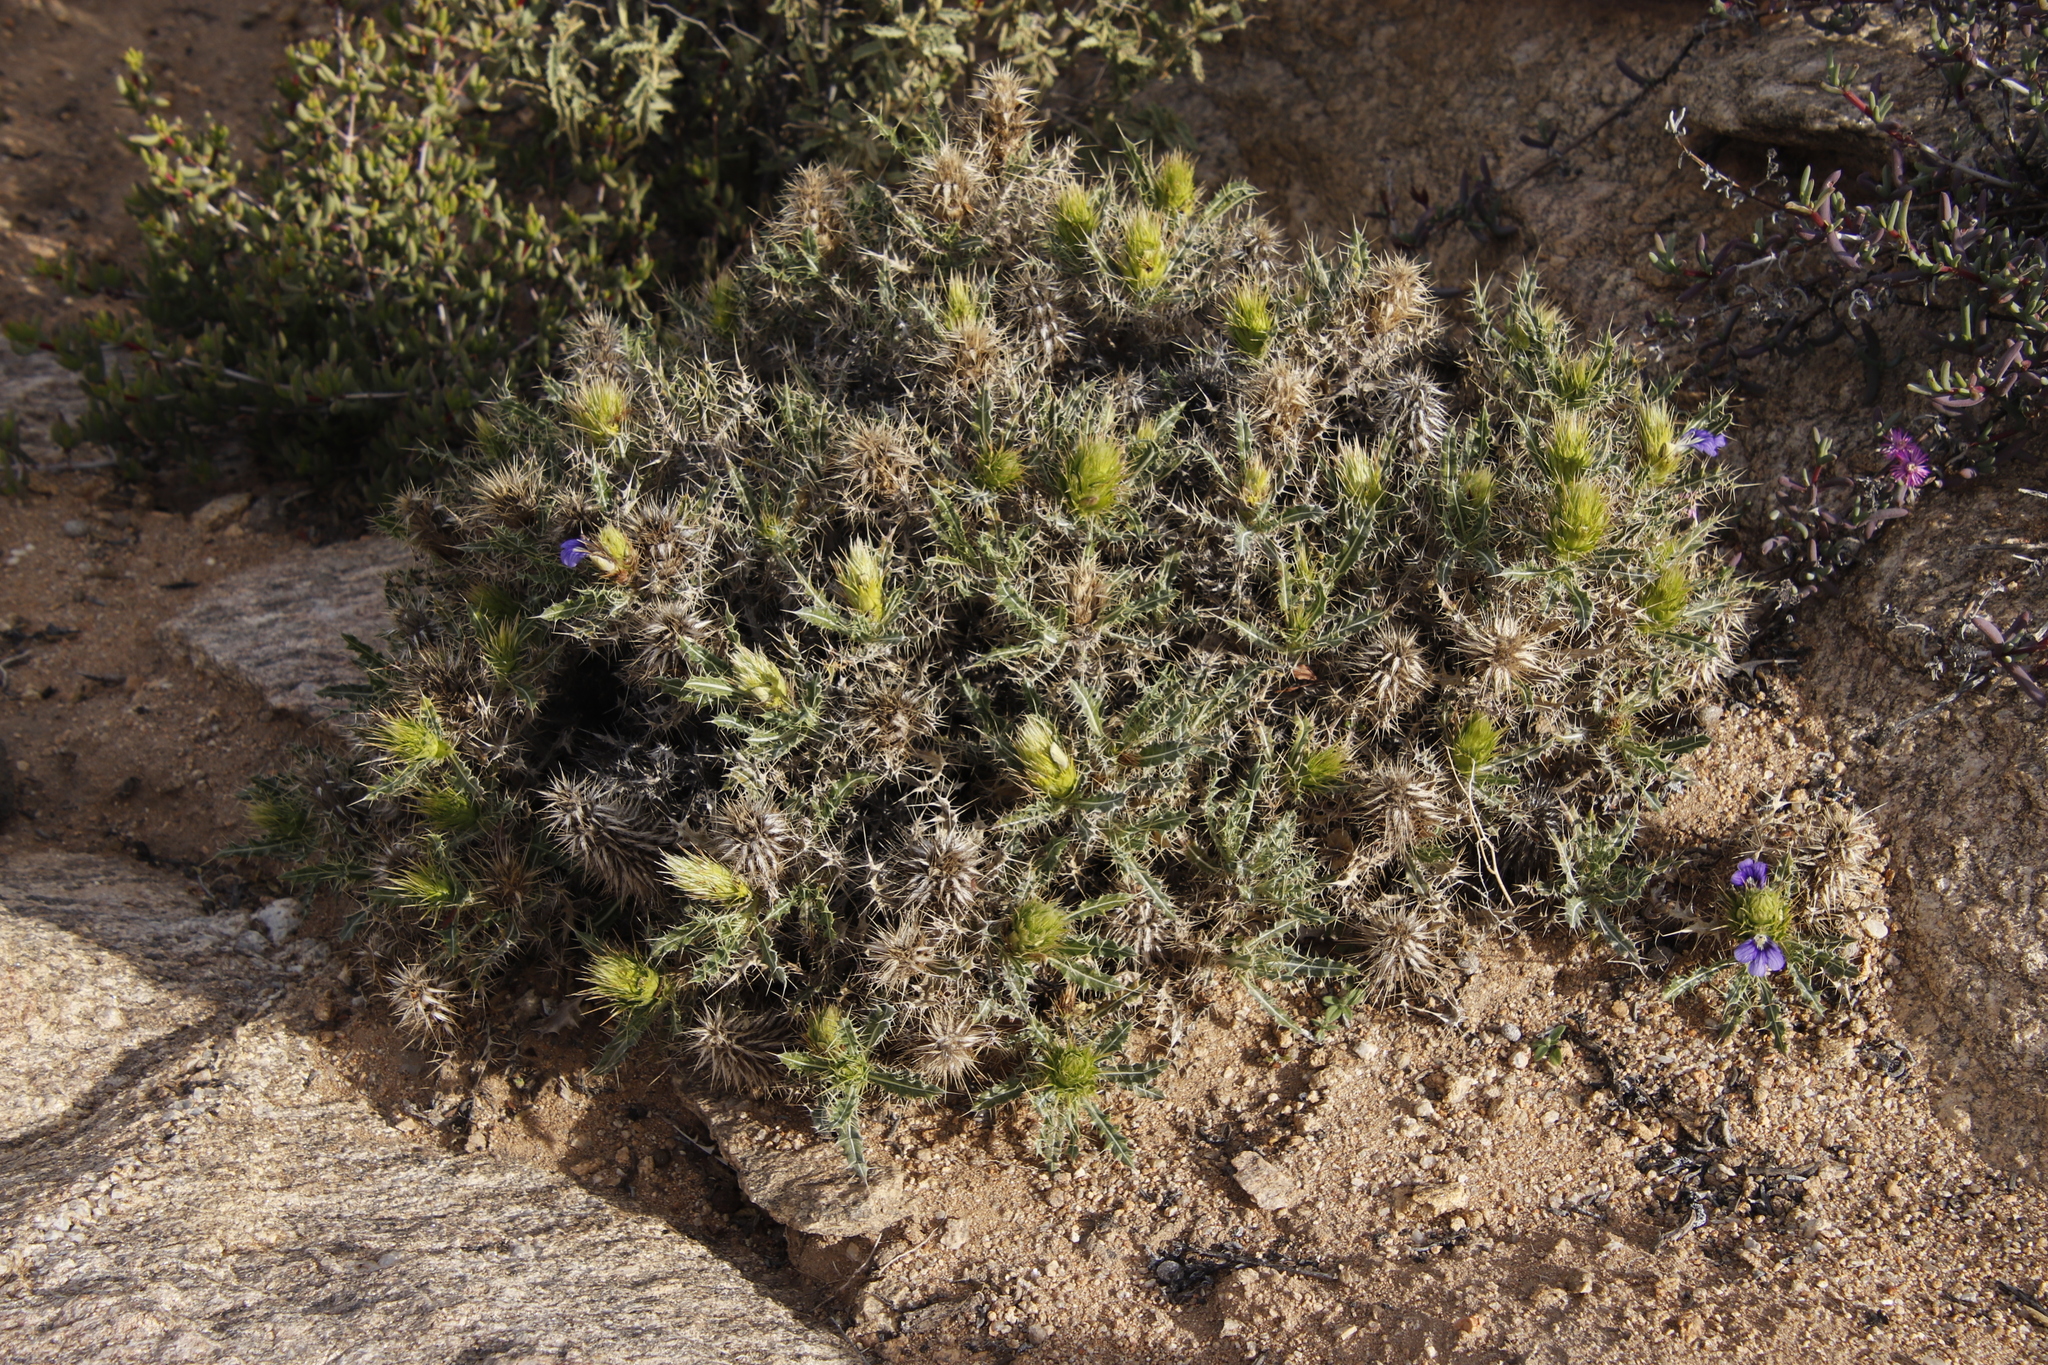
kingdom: Plantae
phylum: Tracheophyta
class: Magnoliopsida
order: Lamiales
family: Acanthaceae
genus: Acanthopsis
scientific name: Acanthopsis horrida
